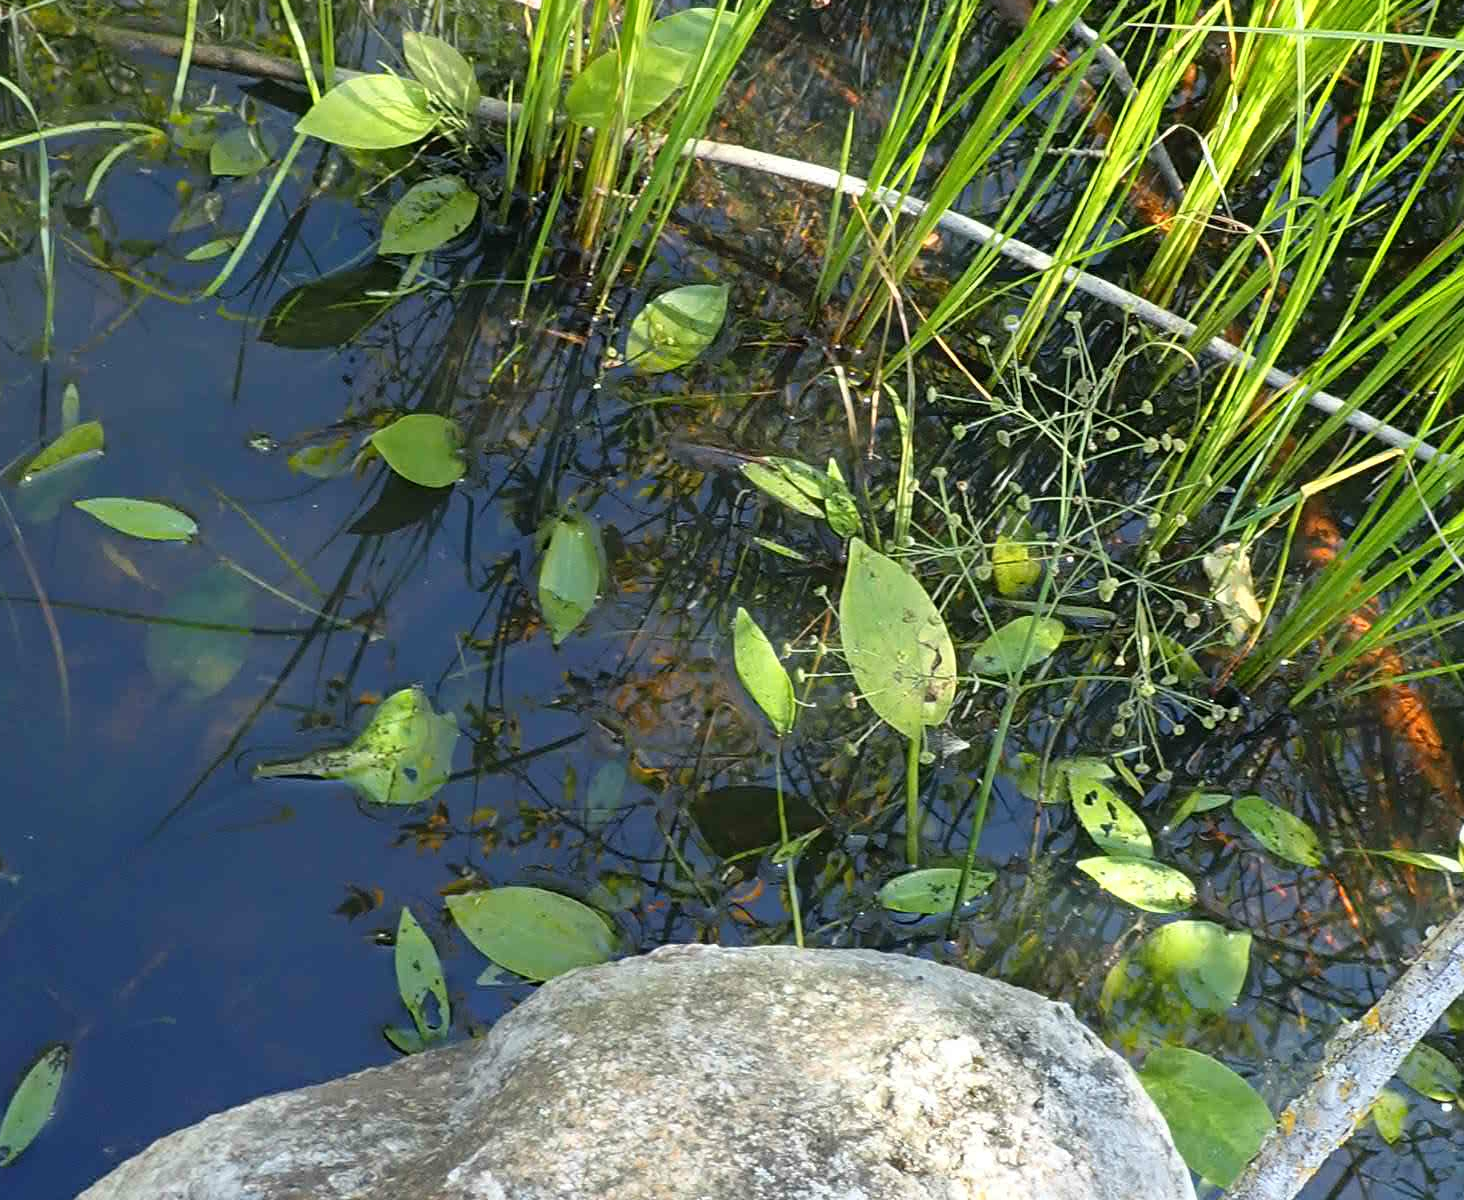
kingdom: Plantae
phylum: Tracheophyta
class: Liliopsida
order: Alismatales
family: Alismataceae
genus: Alisma
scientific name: Alisma triviale
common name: Northern water-plantain
